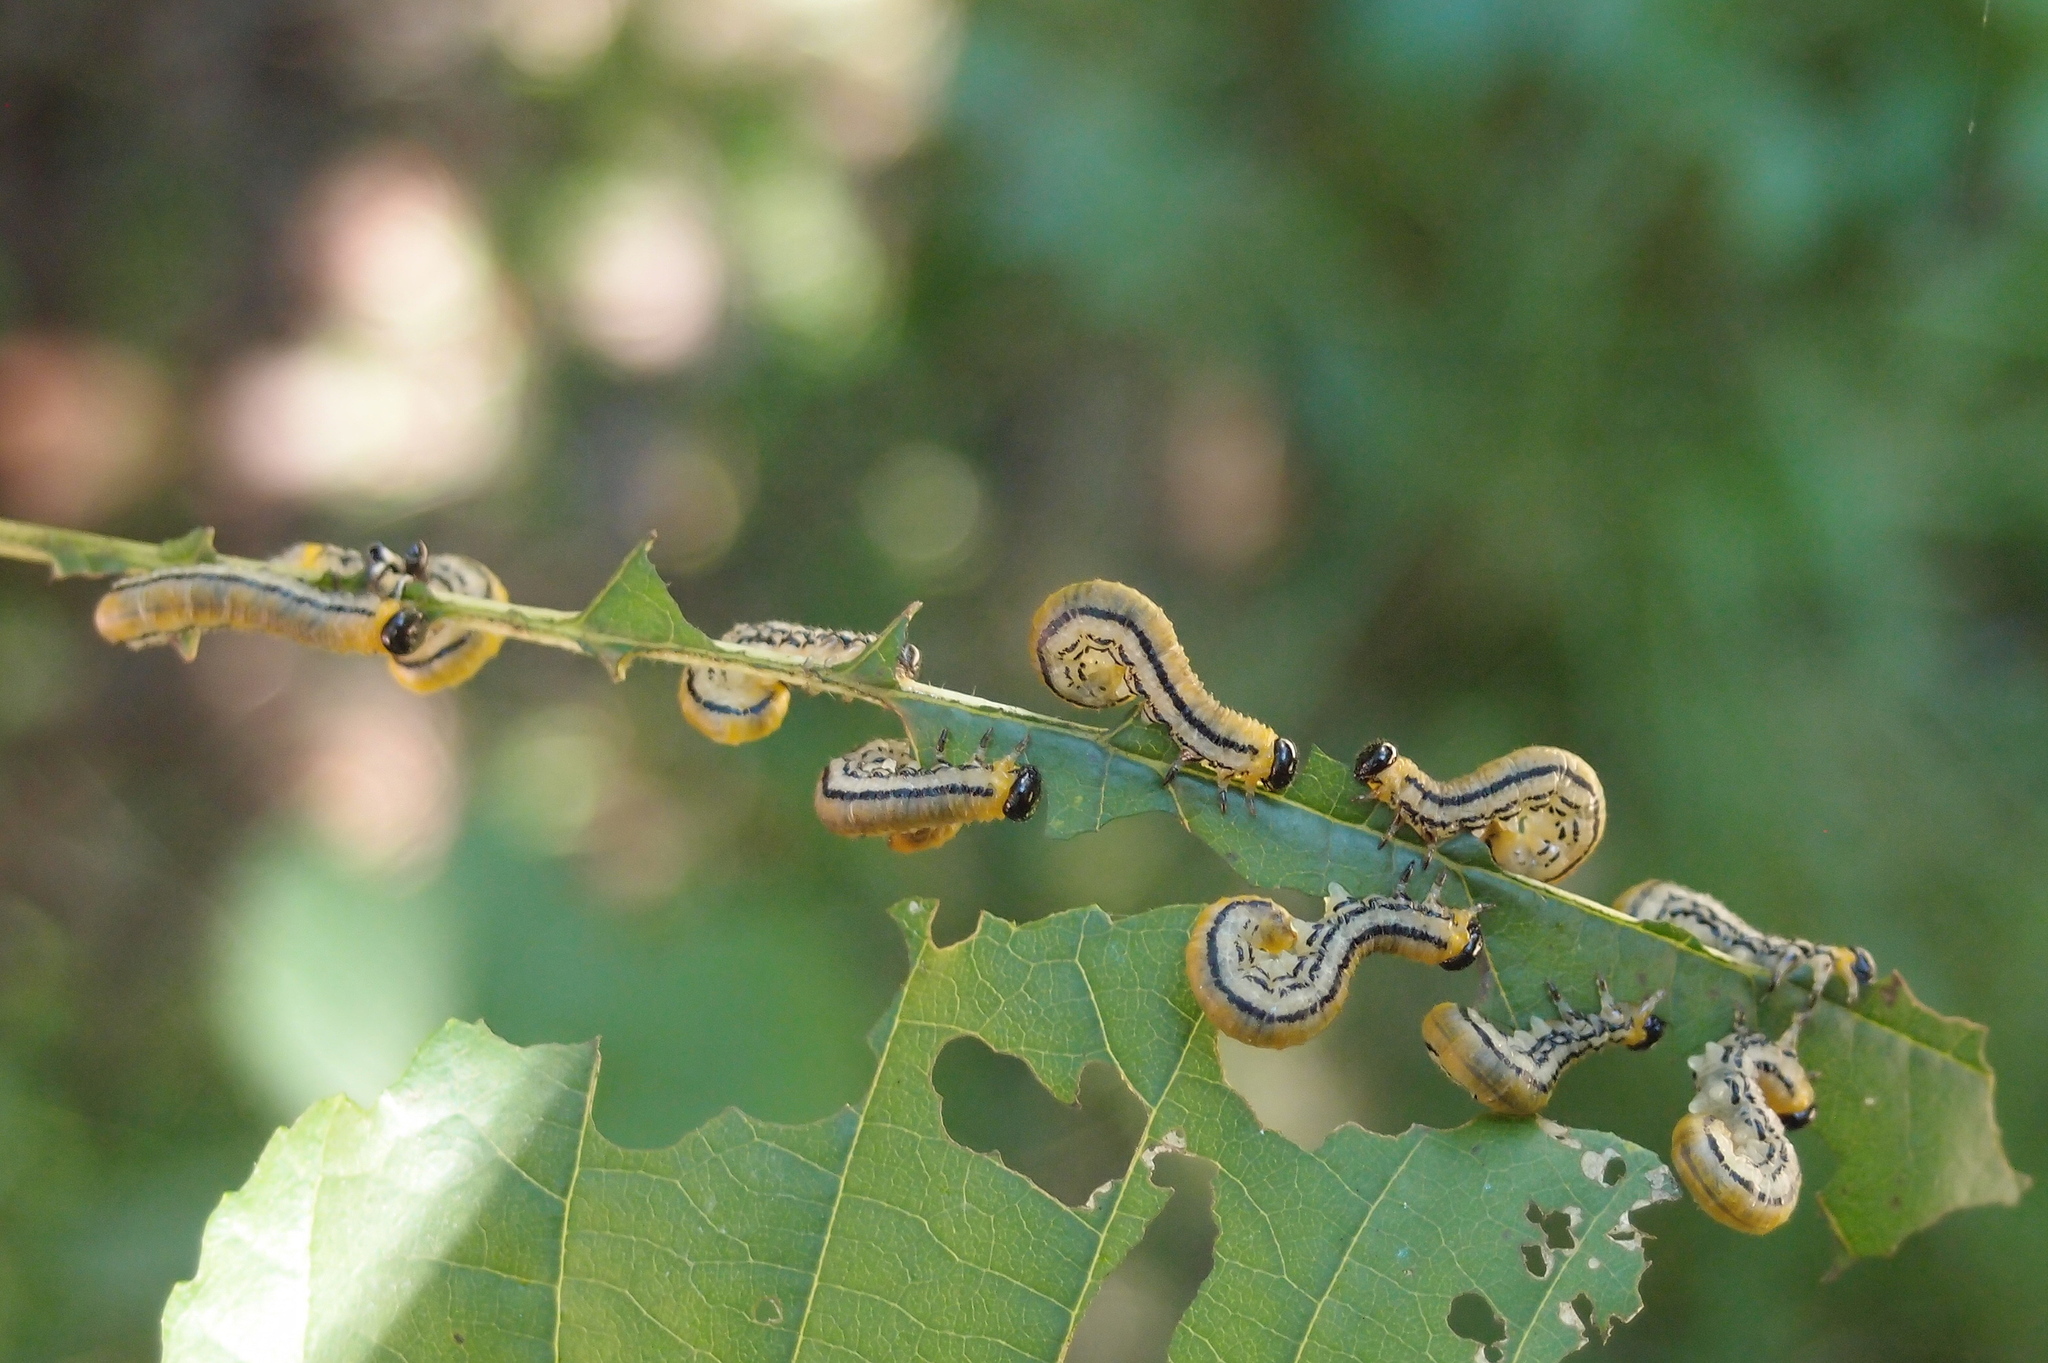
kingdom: Animalia
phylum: Arthropoda
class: Insecta
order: Hymenoptera
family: Tenthredinidae
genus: Hemichroa
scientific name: Hemichroa crocea
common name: Striped alder sawfly
